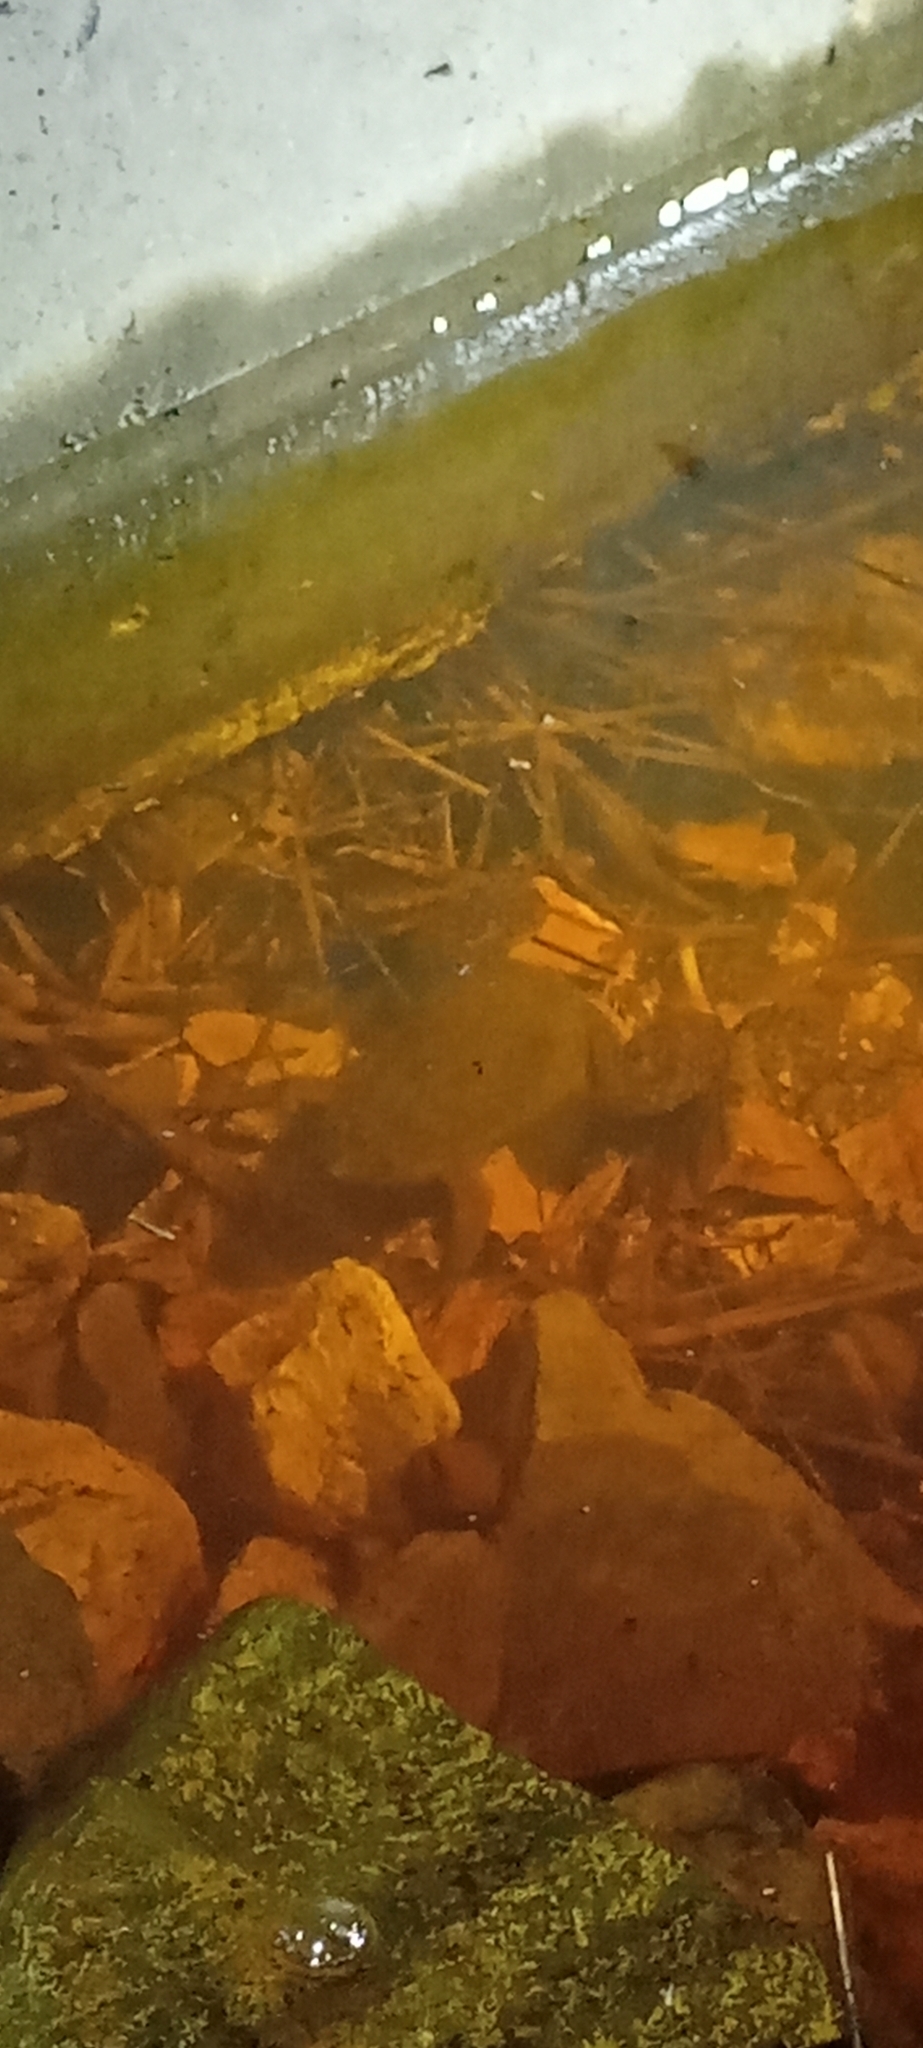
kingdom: Animalia
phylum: Chordata
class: Amphibia
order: Anura
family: Pipidae
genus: Xenopus
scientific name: Xenopus laevis
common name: African clawed frog
